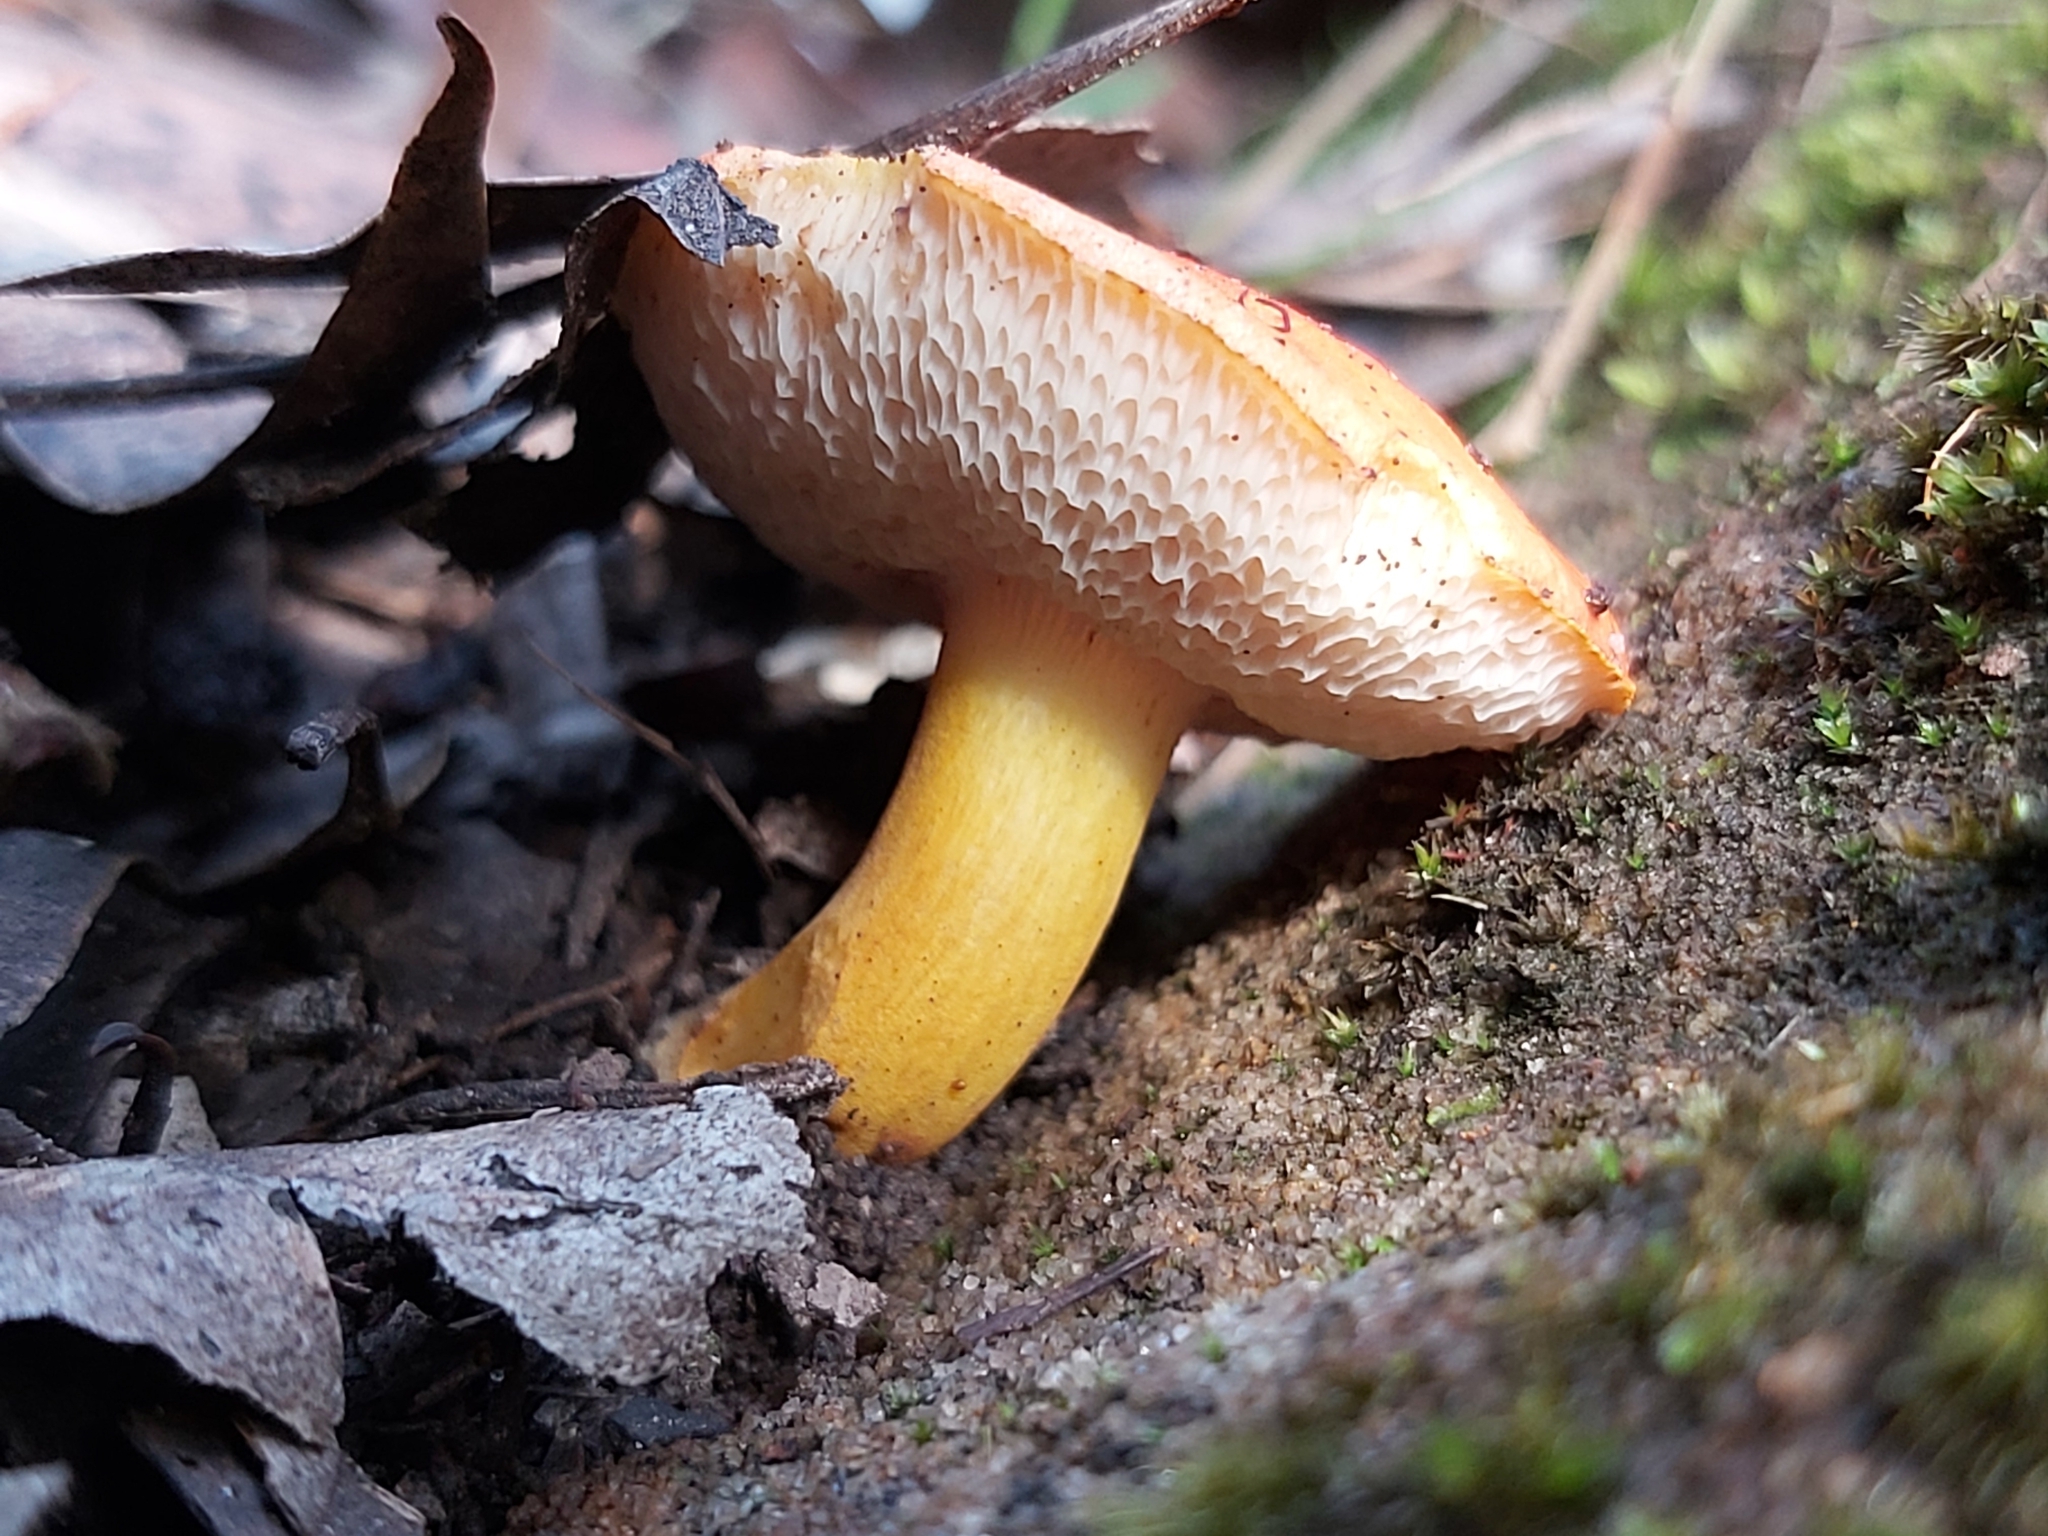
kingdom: Fungi
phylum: Basidiomycota
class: Agaricomycetes
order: Boletales
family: Boletaceae
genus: Tylopilus
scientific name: Tylopilus balloui
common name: Burnt-orange bolete
